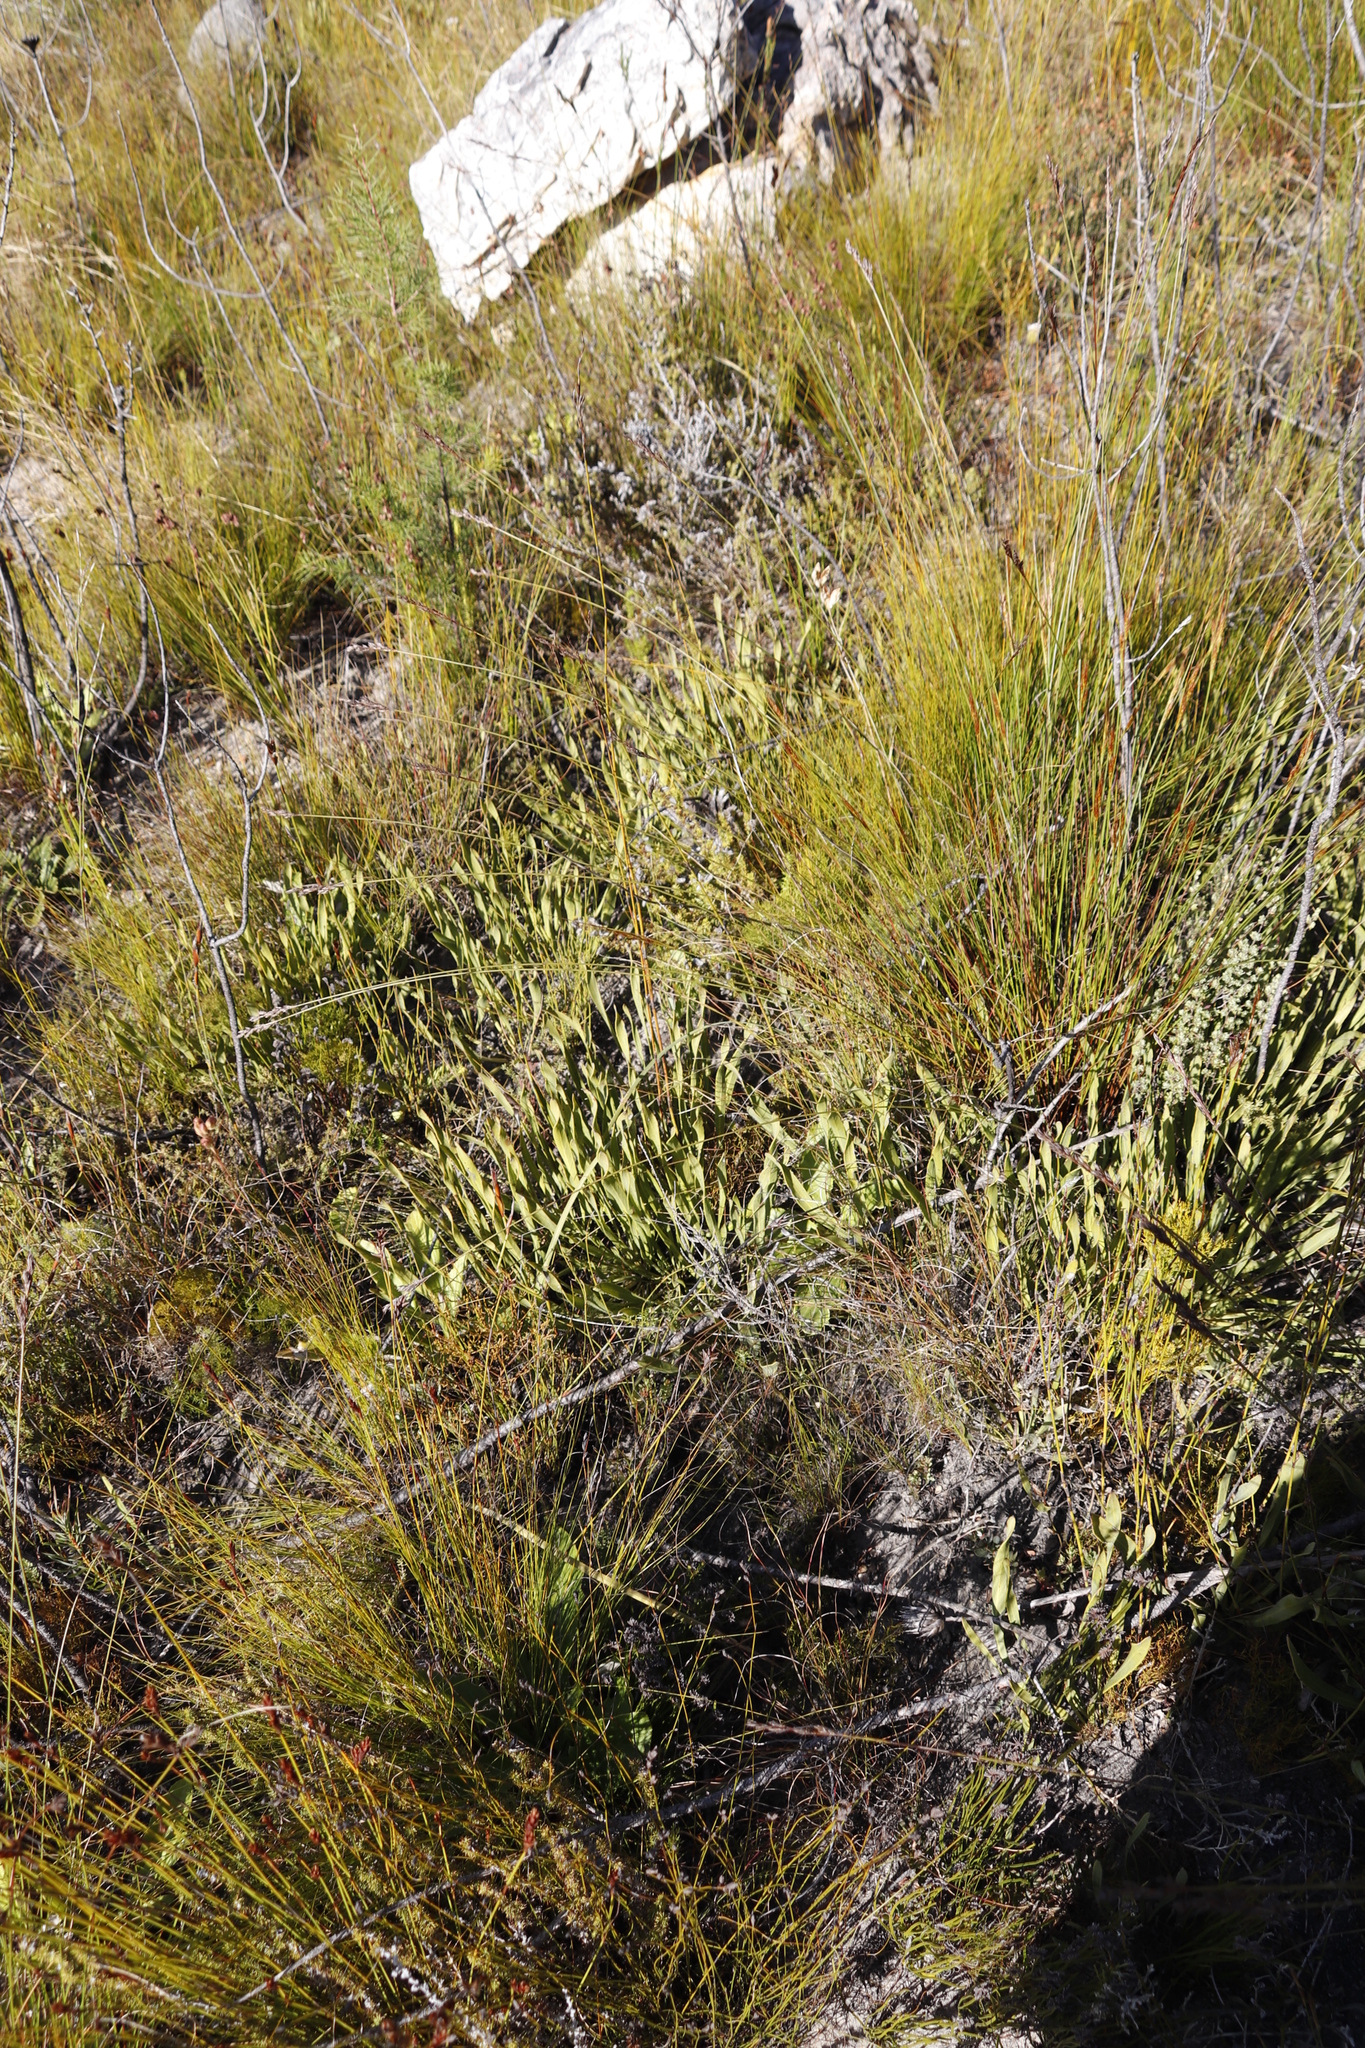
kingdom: Plantae
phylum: Tracheophyta
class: Magnoliopsida
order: Proteales
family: Proteaceae
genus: Protea
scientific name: Protea scabra
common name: Sandpaper-leaf sugarbush
